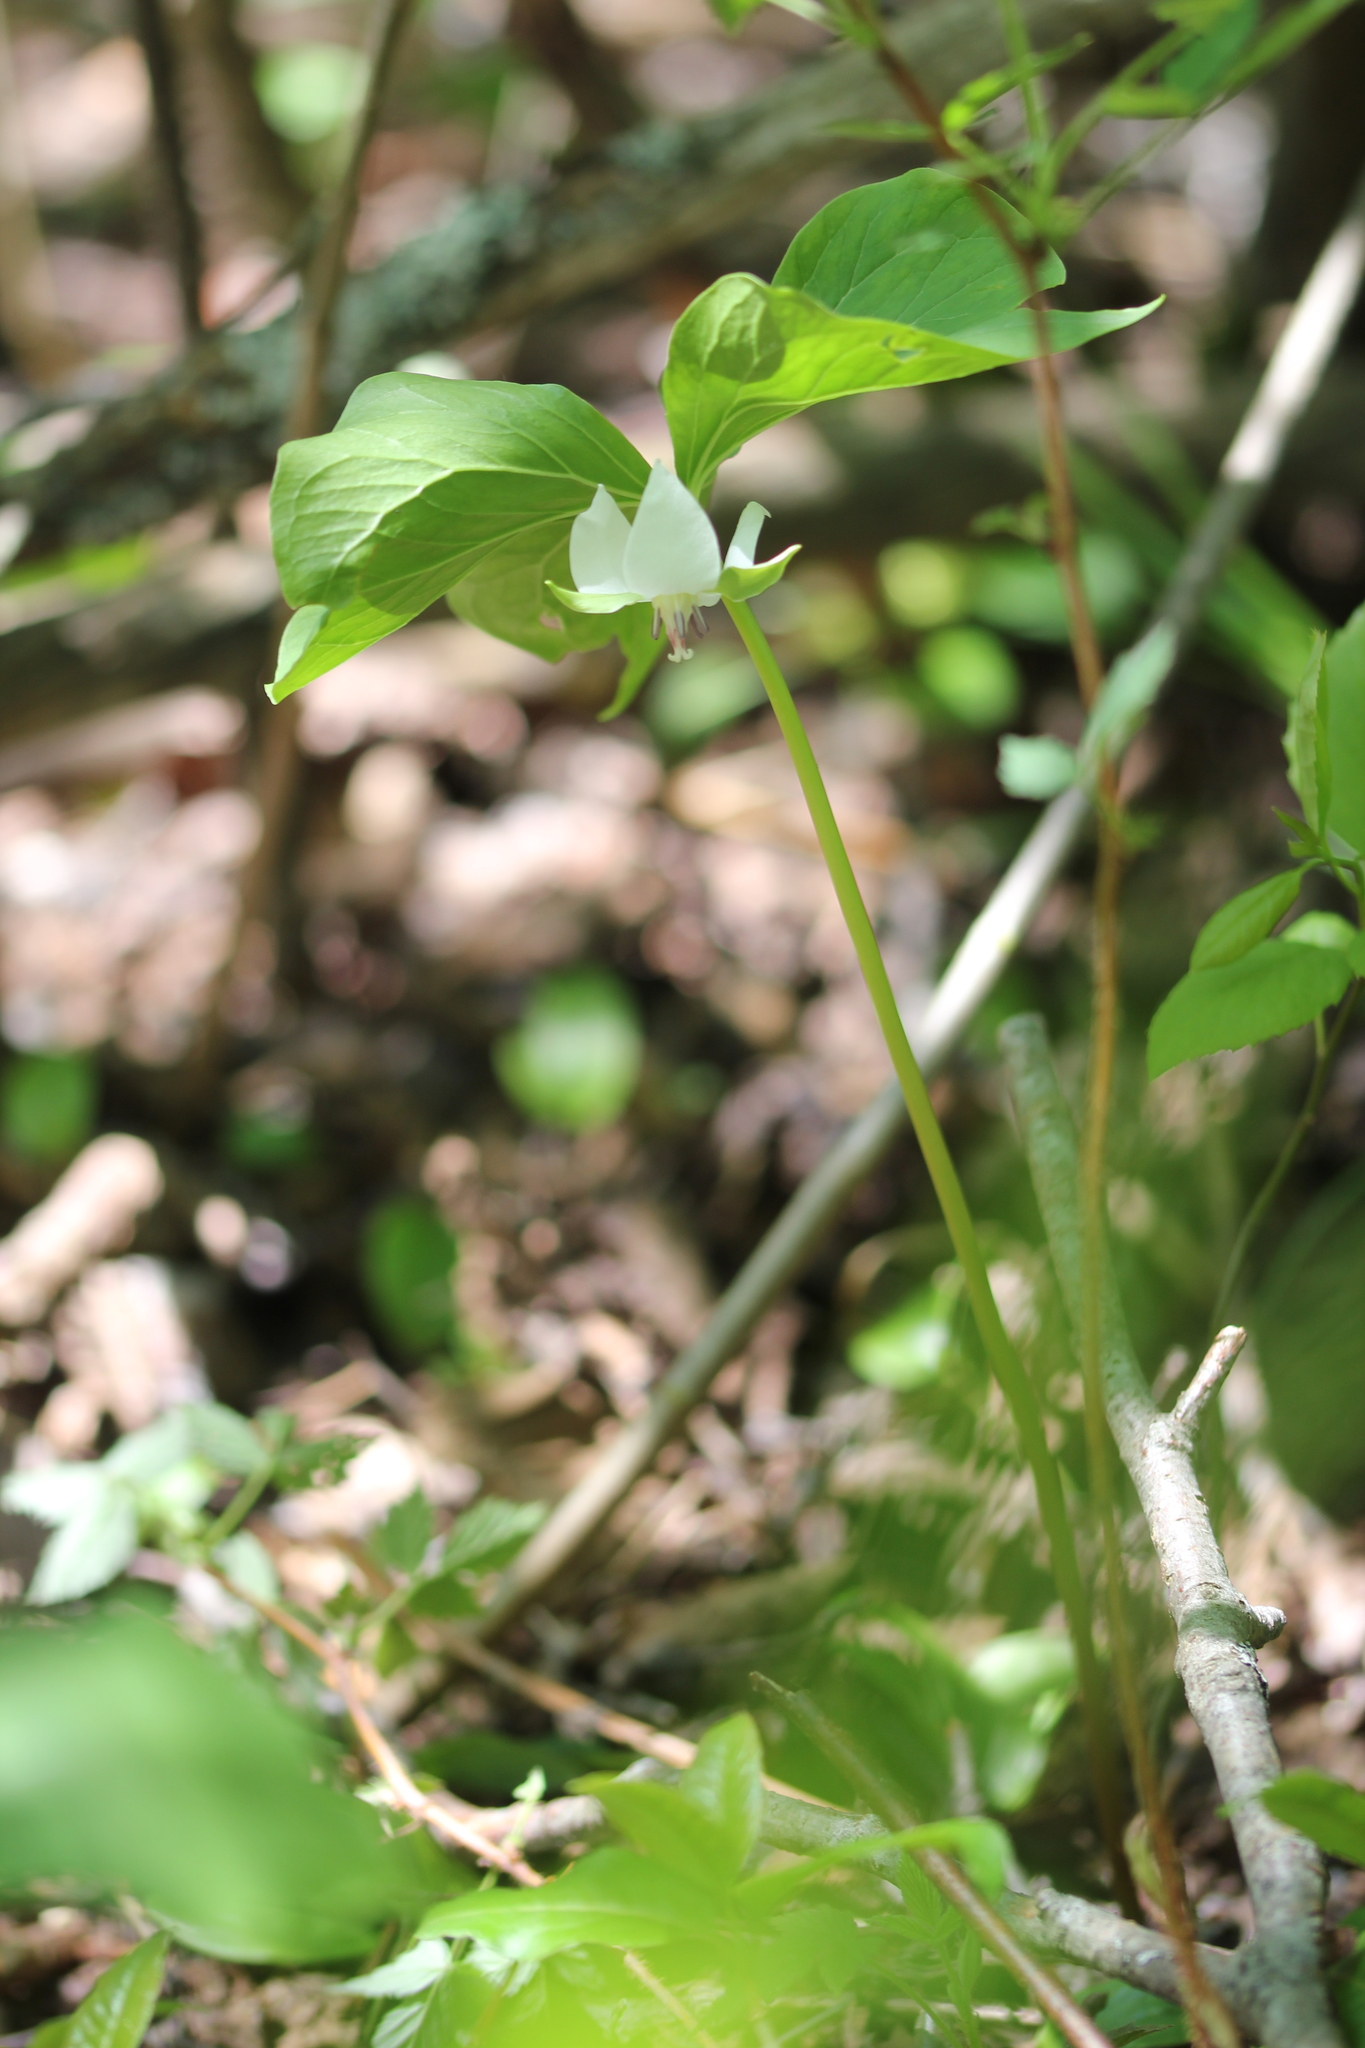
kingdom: Plantae
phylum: Tracheophyta
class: Liliopsida
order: Liliales
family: Melanthiaceae
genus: Trillium
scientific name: Trillium cernuum
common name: Nodding trillium
